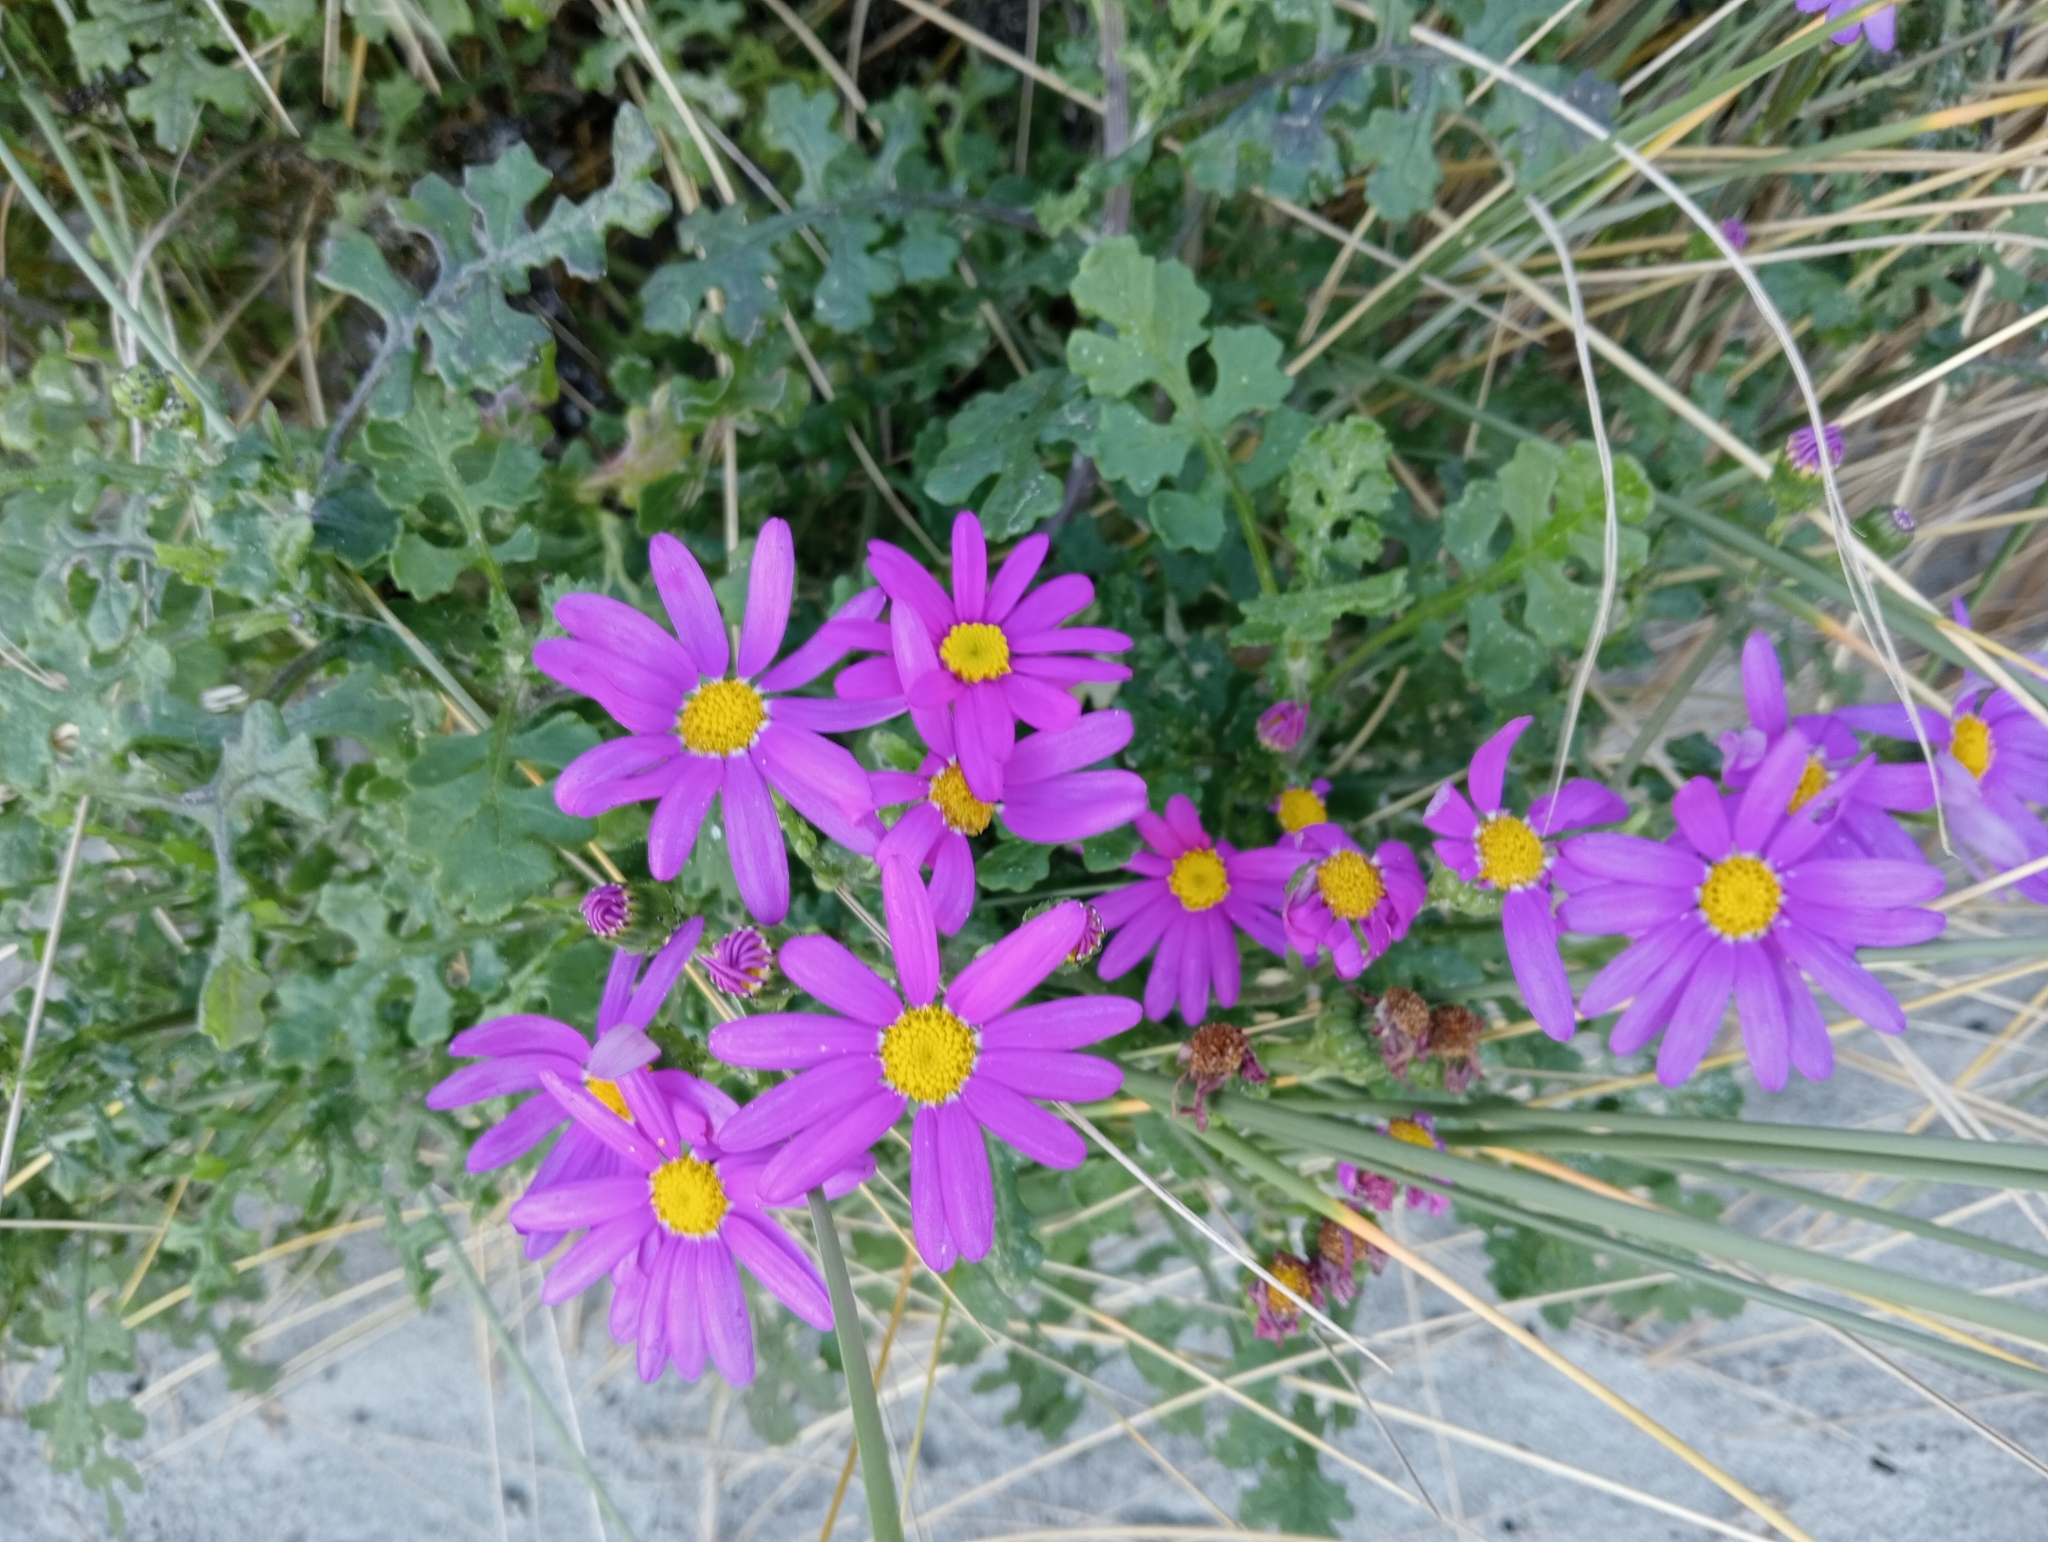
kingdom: Plantae
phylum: Tracheophyta
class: Magnoliopsida
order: Asterales
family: Asteraceae
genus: Senecio
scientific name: Senecio elegans
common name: Purple groundsel
